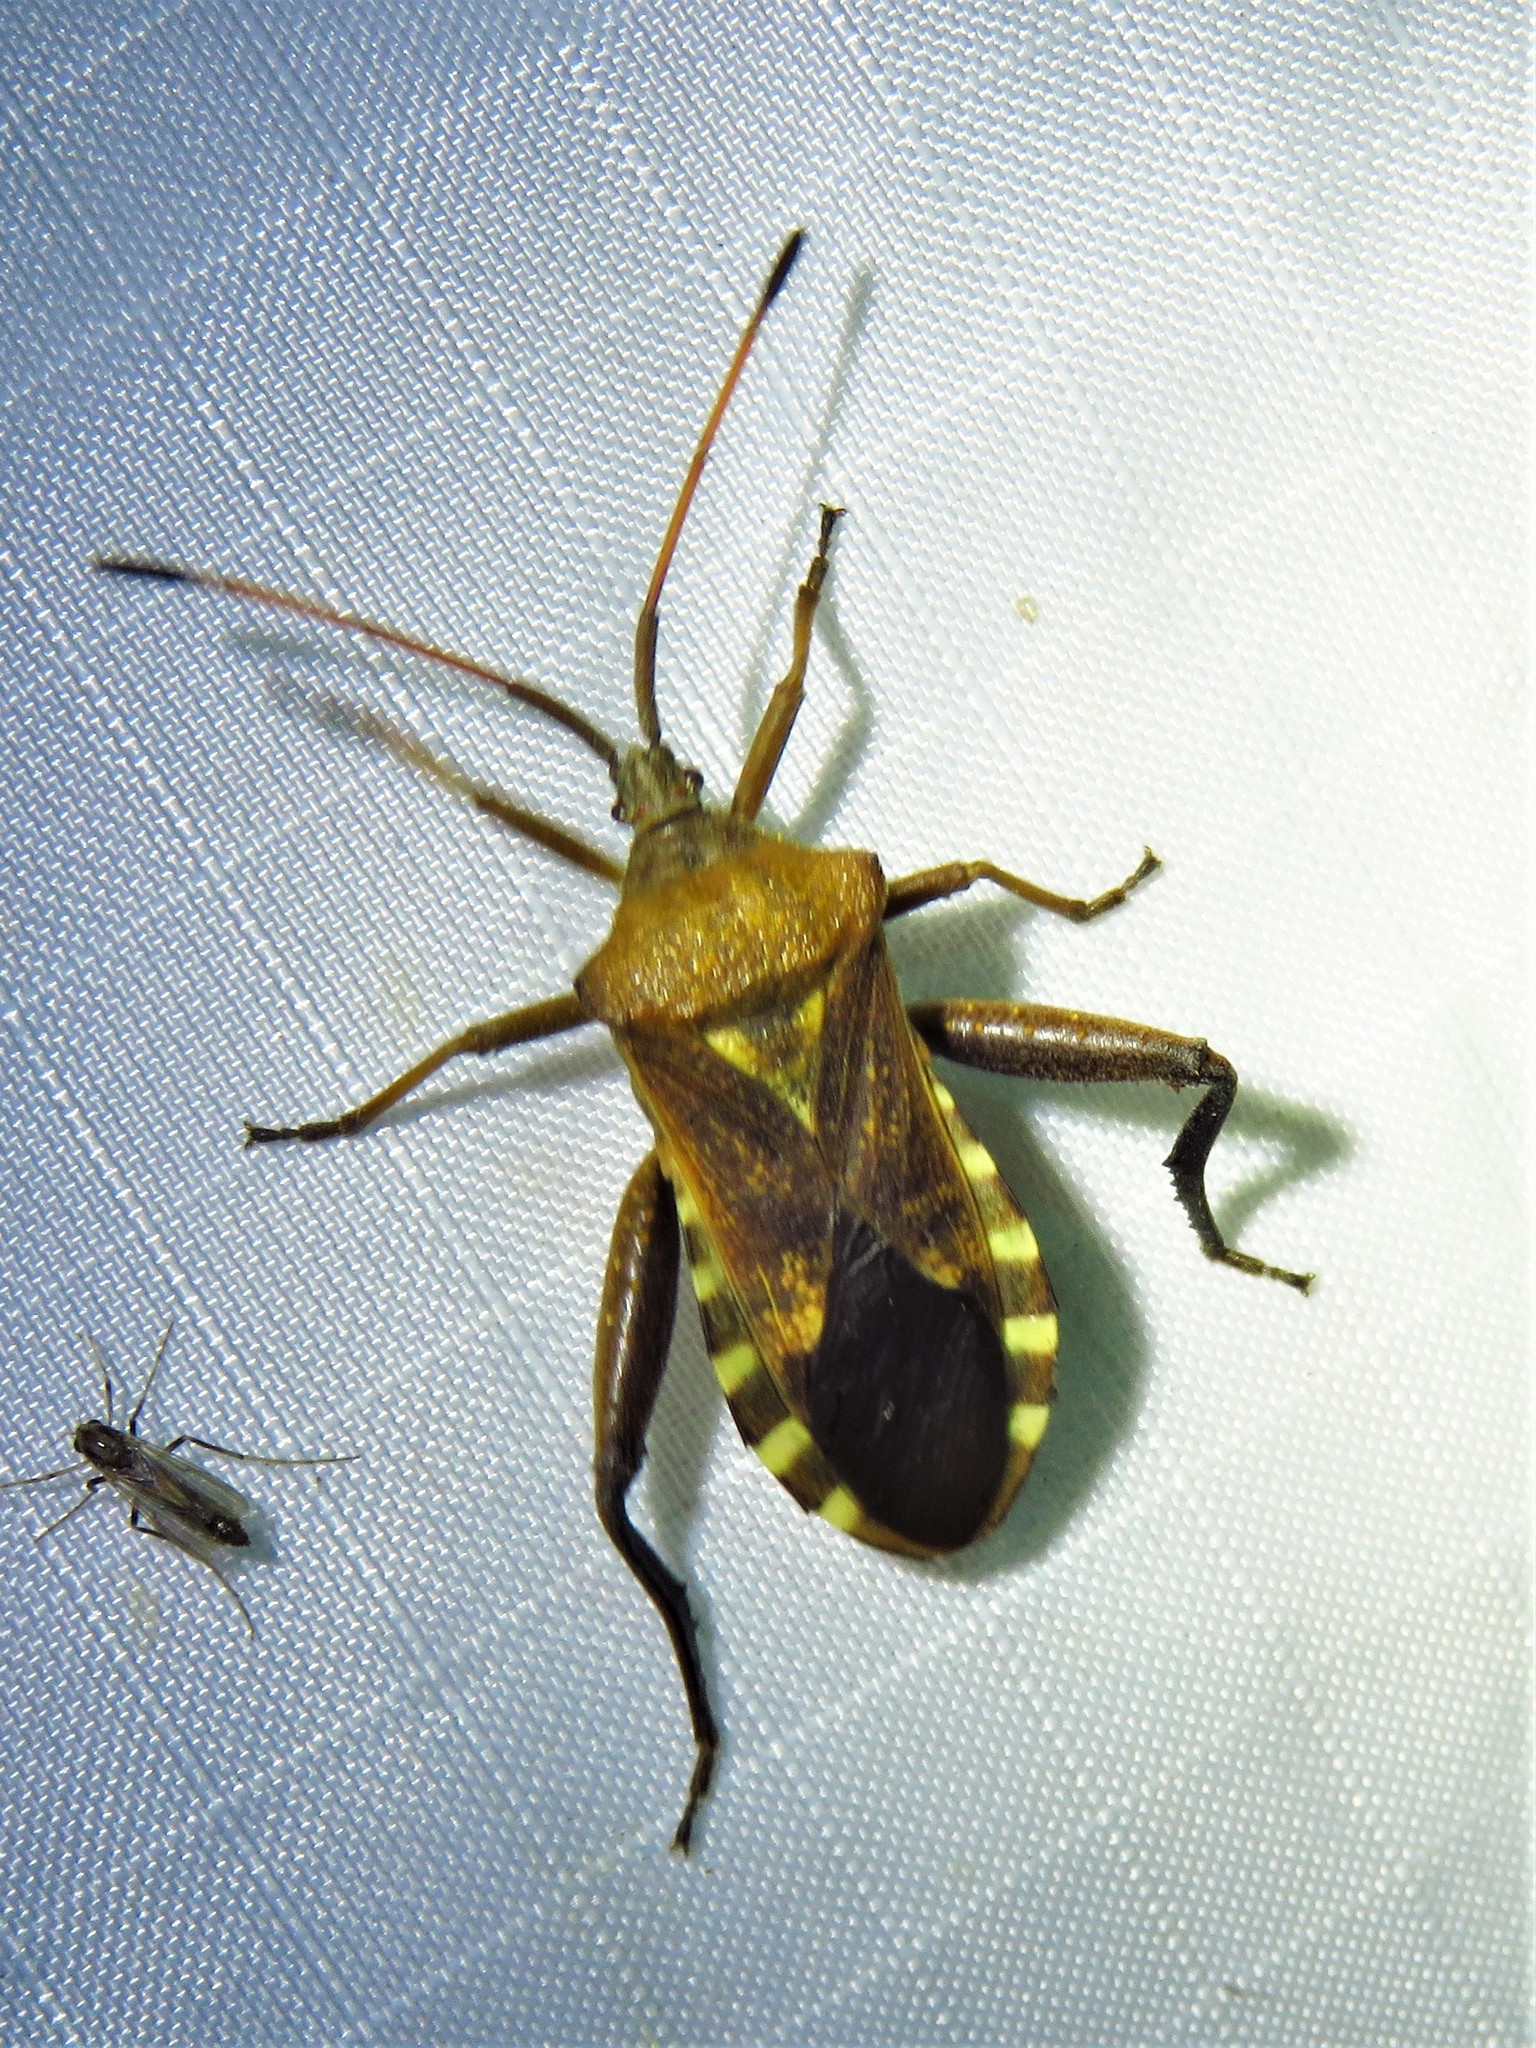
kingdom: Animalia
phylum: Arthropoda
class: Insecta
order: Hemiptera
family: Coreidae
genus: Mozena
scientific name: Mozena obtusa
